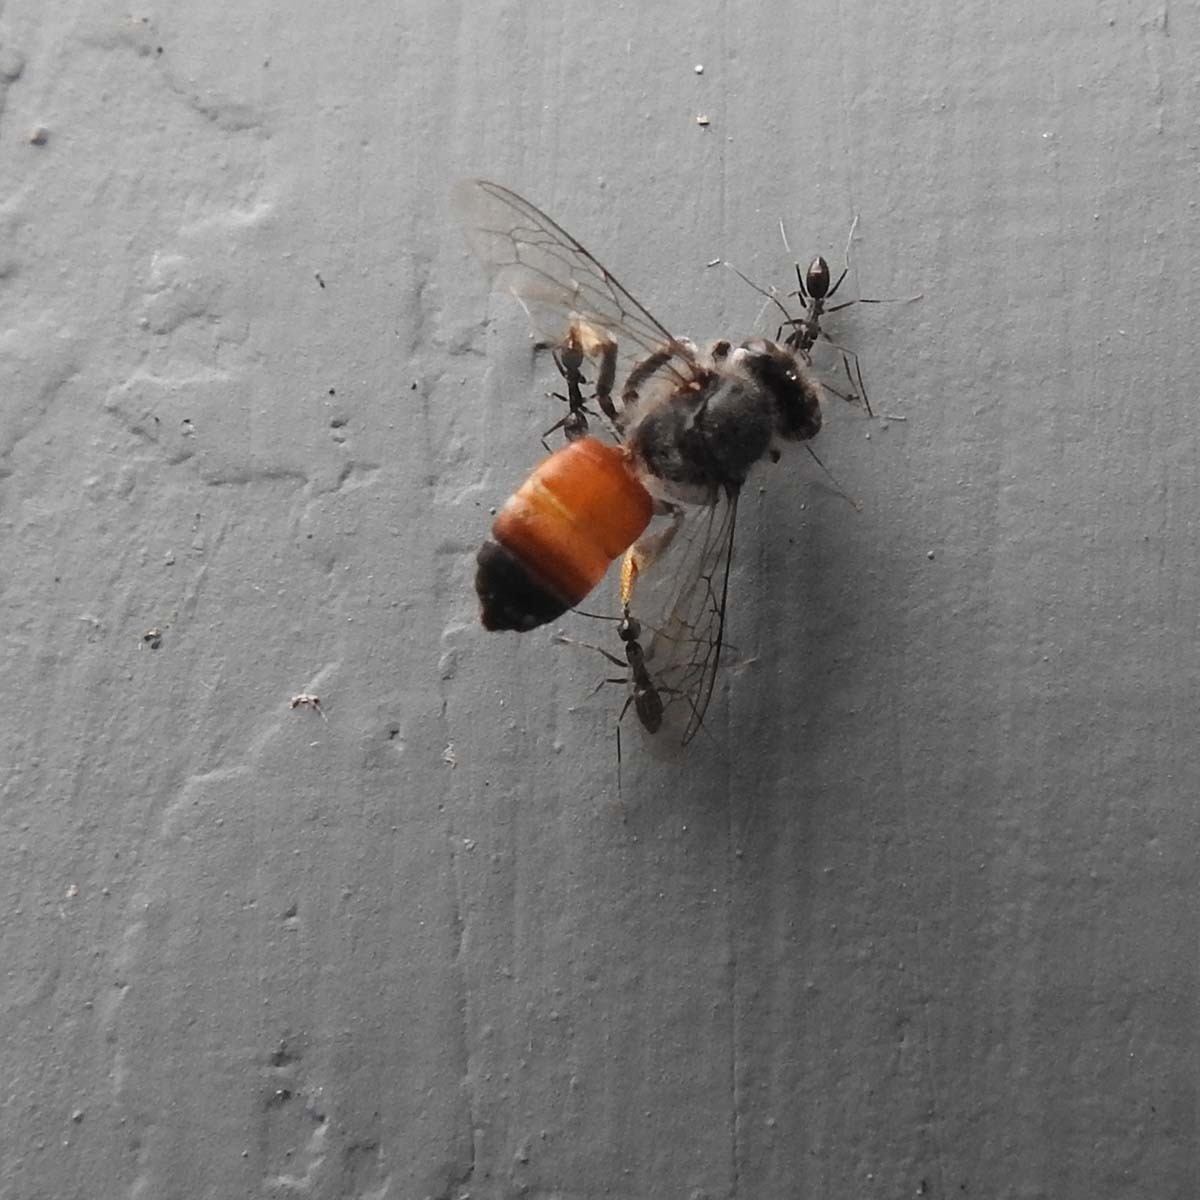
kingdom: Animalia
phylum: Arthropoda
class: Insecta
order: Hymenoptera
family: Apidae
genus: Apis
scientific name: Apis florea
